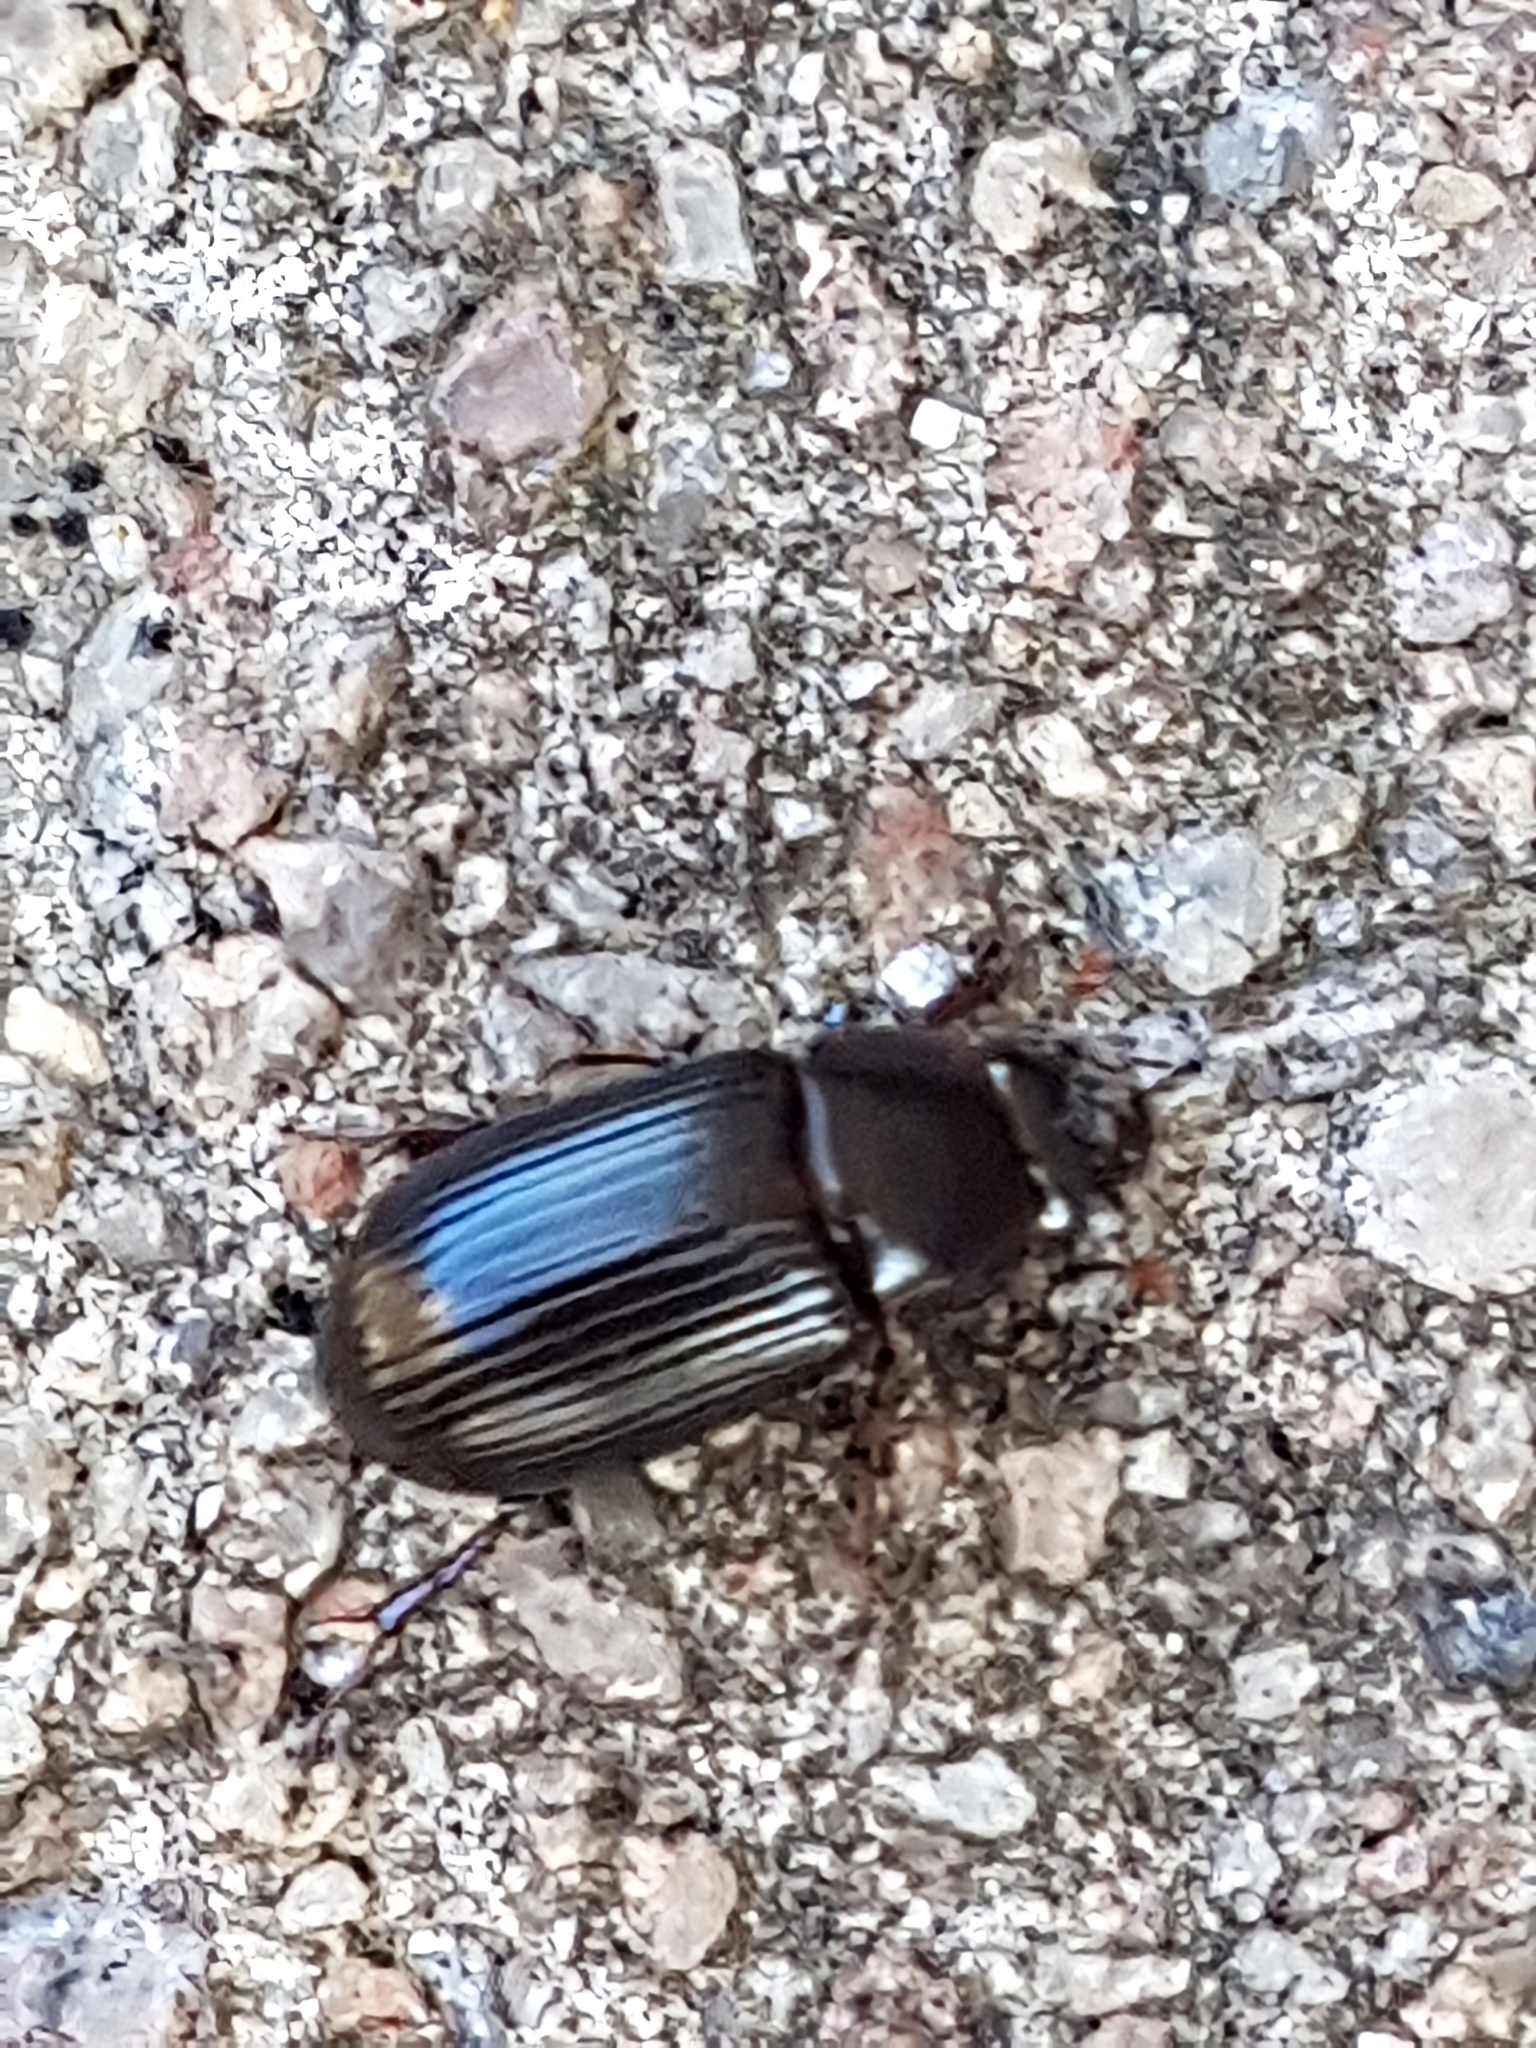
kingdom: Animalia
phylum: Arthropoda
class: Insecta
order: Coleoptera
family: Scarabaeidae
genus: Acrossus
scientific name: Acrossus rufipes
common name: Night-flying dung beetle
